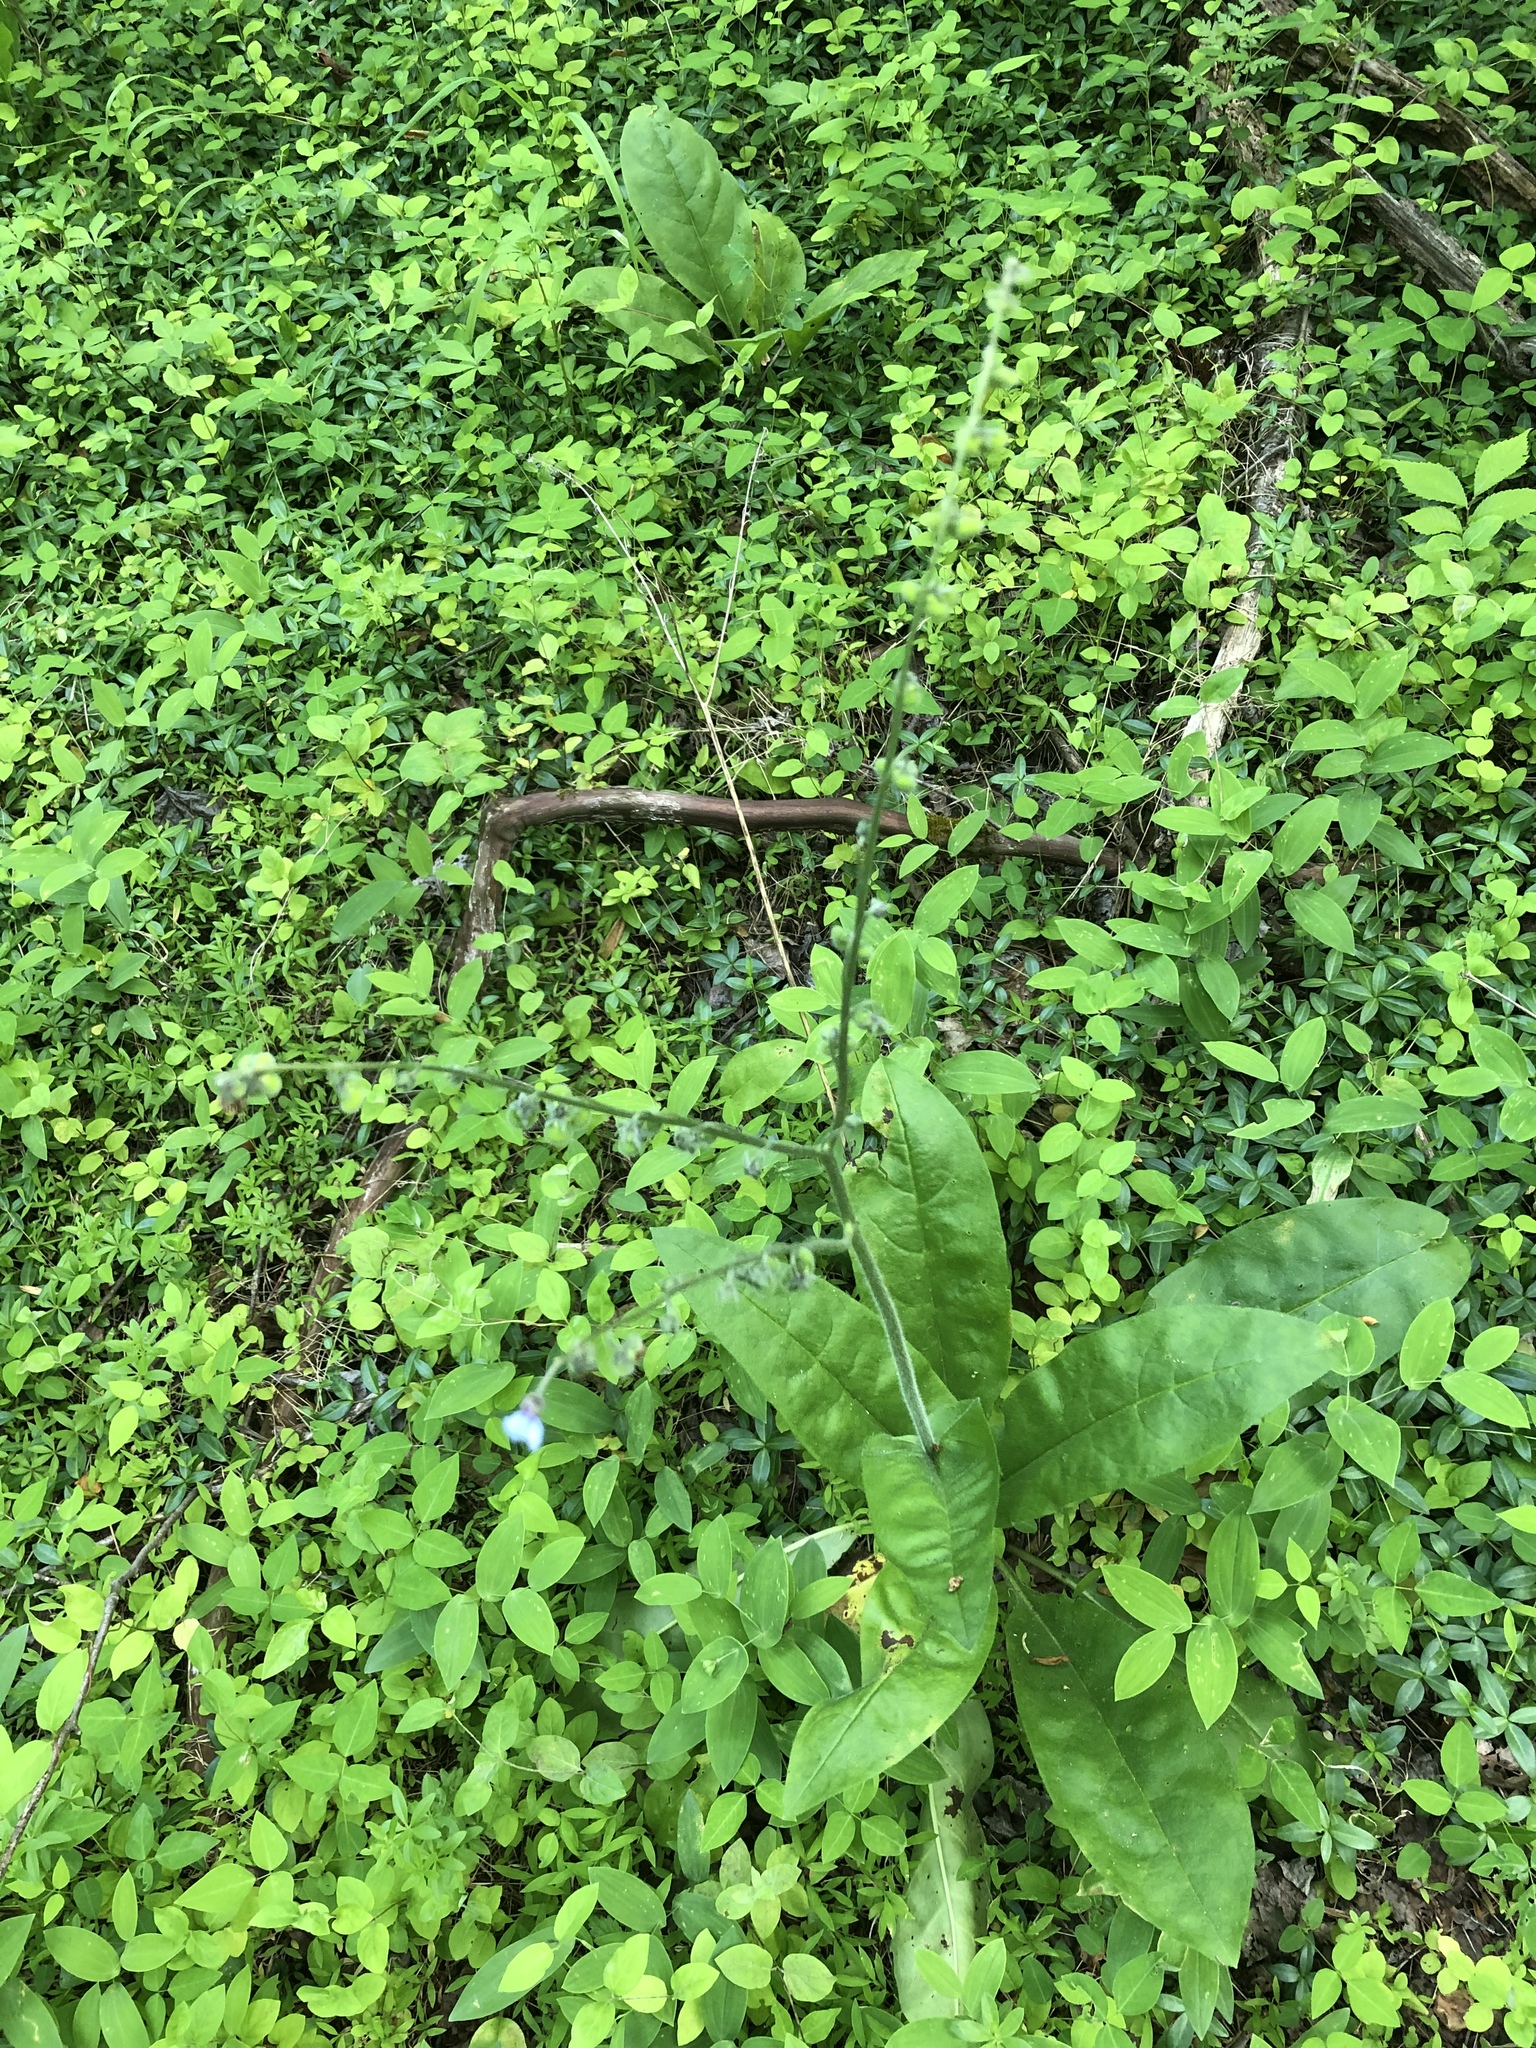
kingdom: Plantae
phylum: Tracheophyta
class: Magnoliopsida
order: Boraginales
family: Boraginaceae
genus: Andersonglossum
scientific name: Andersonglossum virginianum
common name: Wild comfrey
